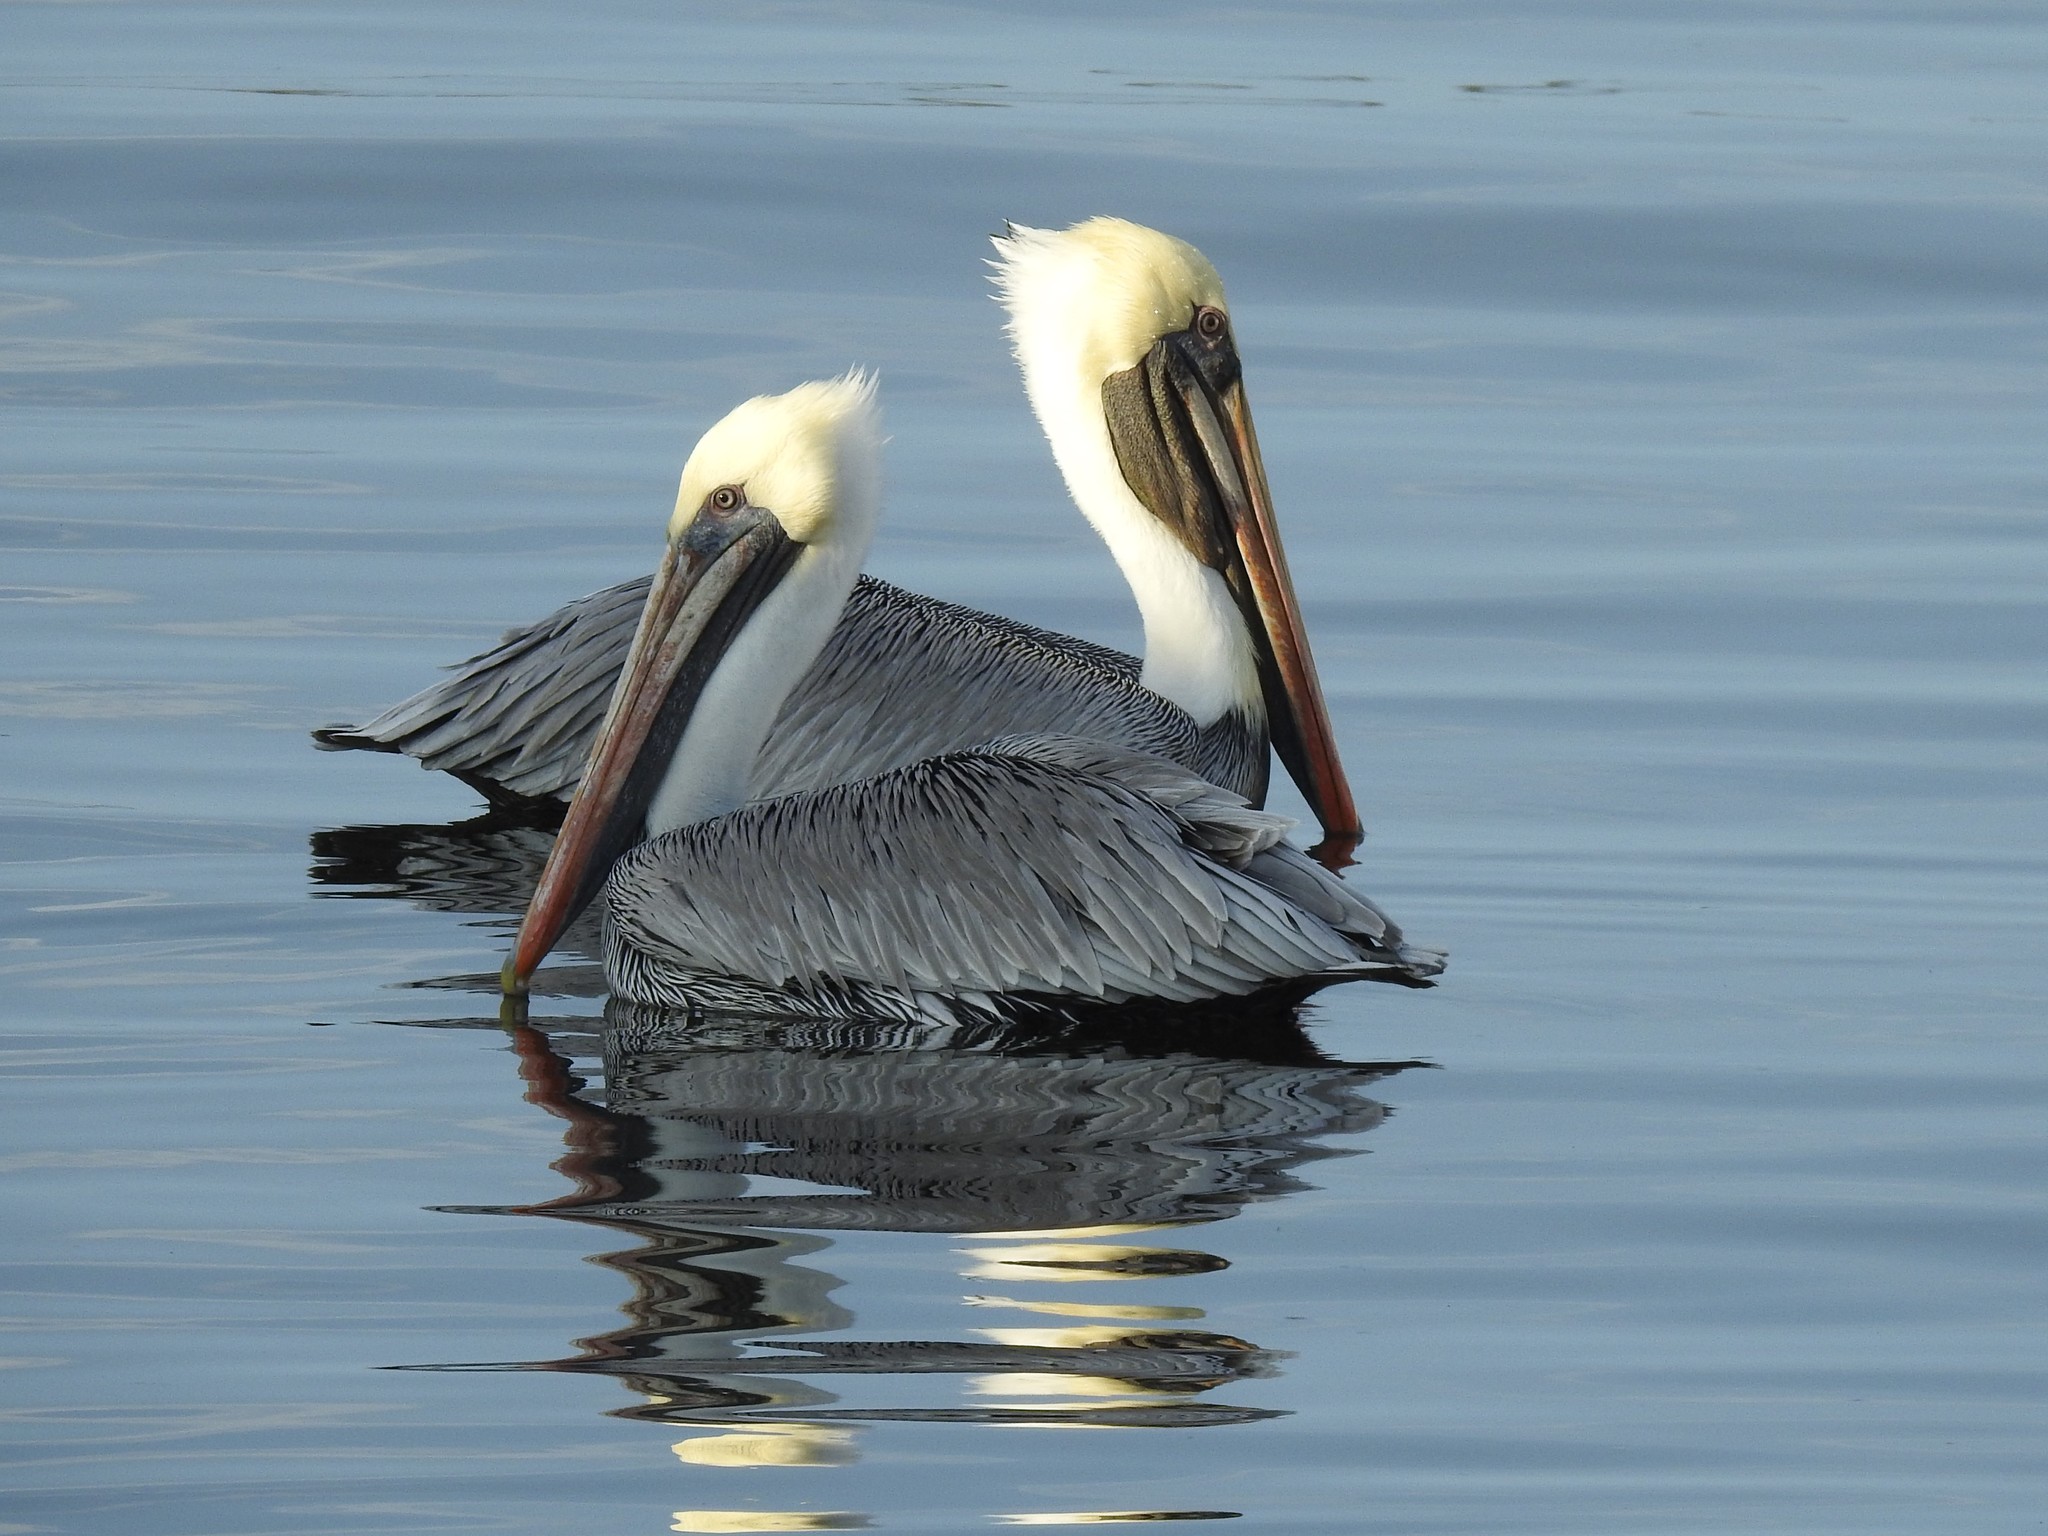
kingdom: Animalia
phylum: Chordata
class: Aves
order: Pelecaniformes
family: Pelecanidae
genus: Pelecanus
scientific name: Pelecanus occidentalis
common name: Brown pelican
